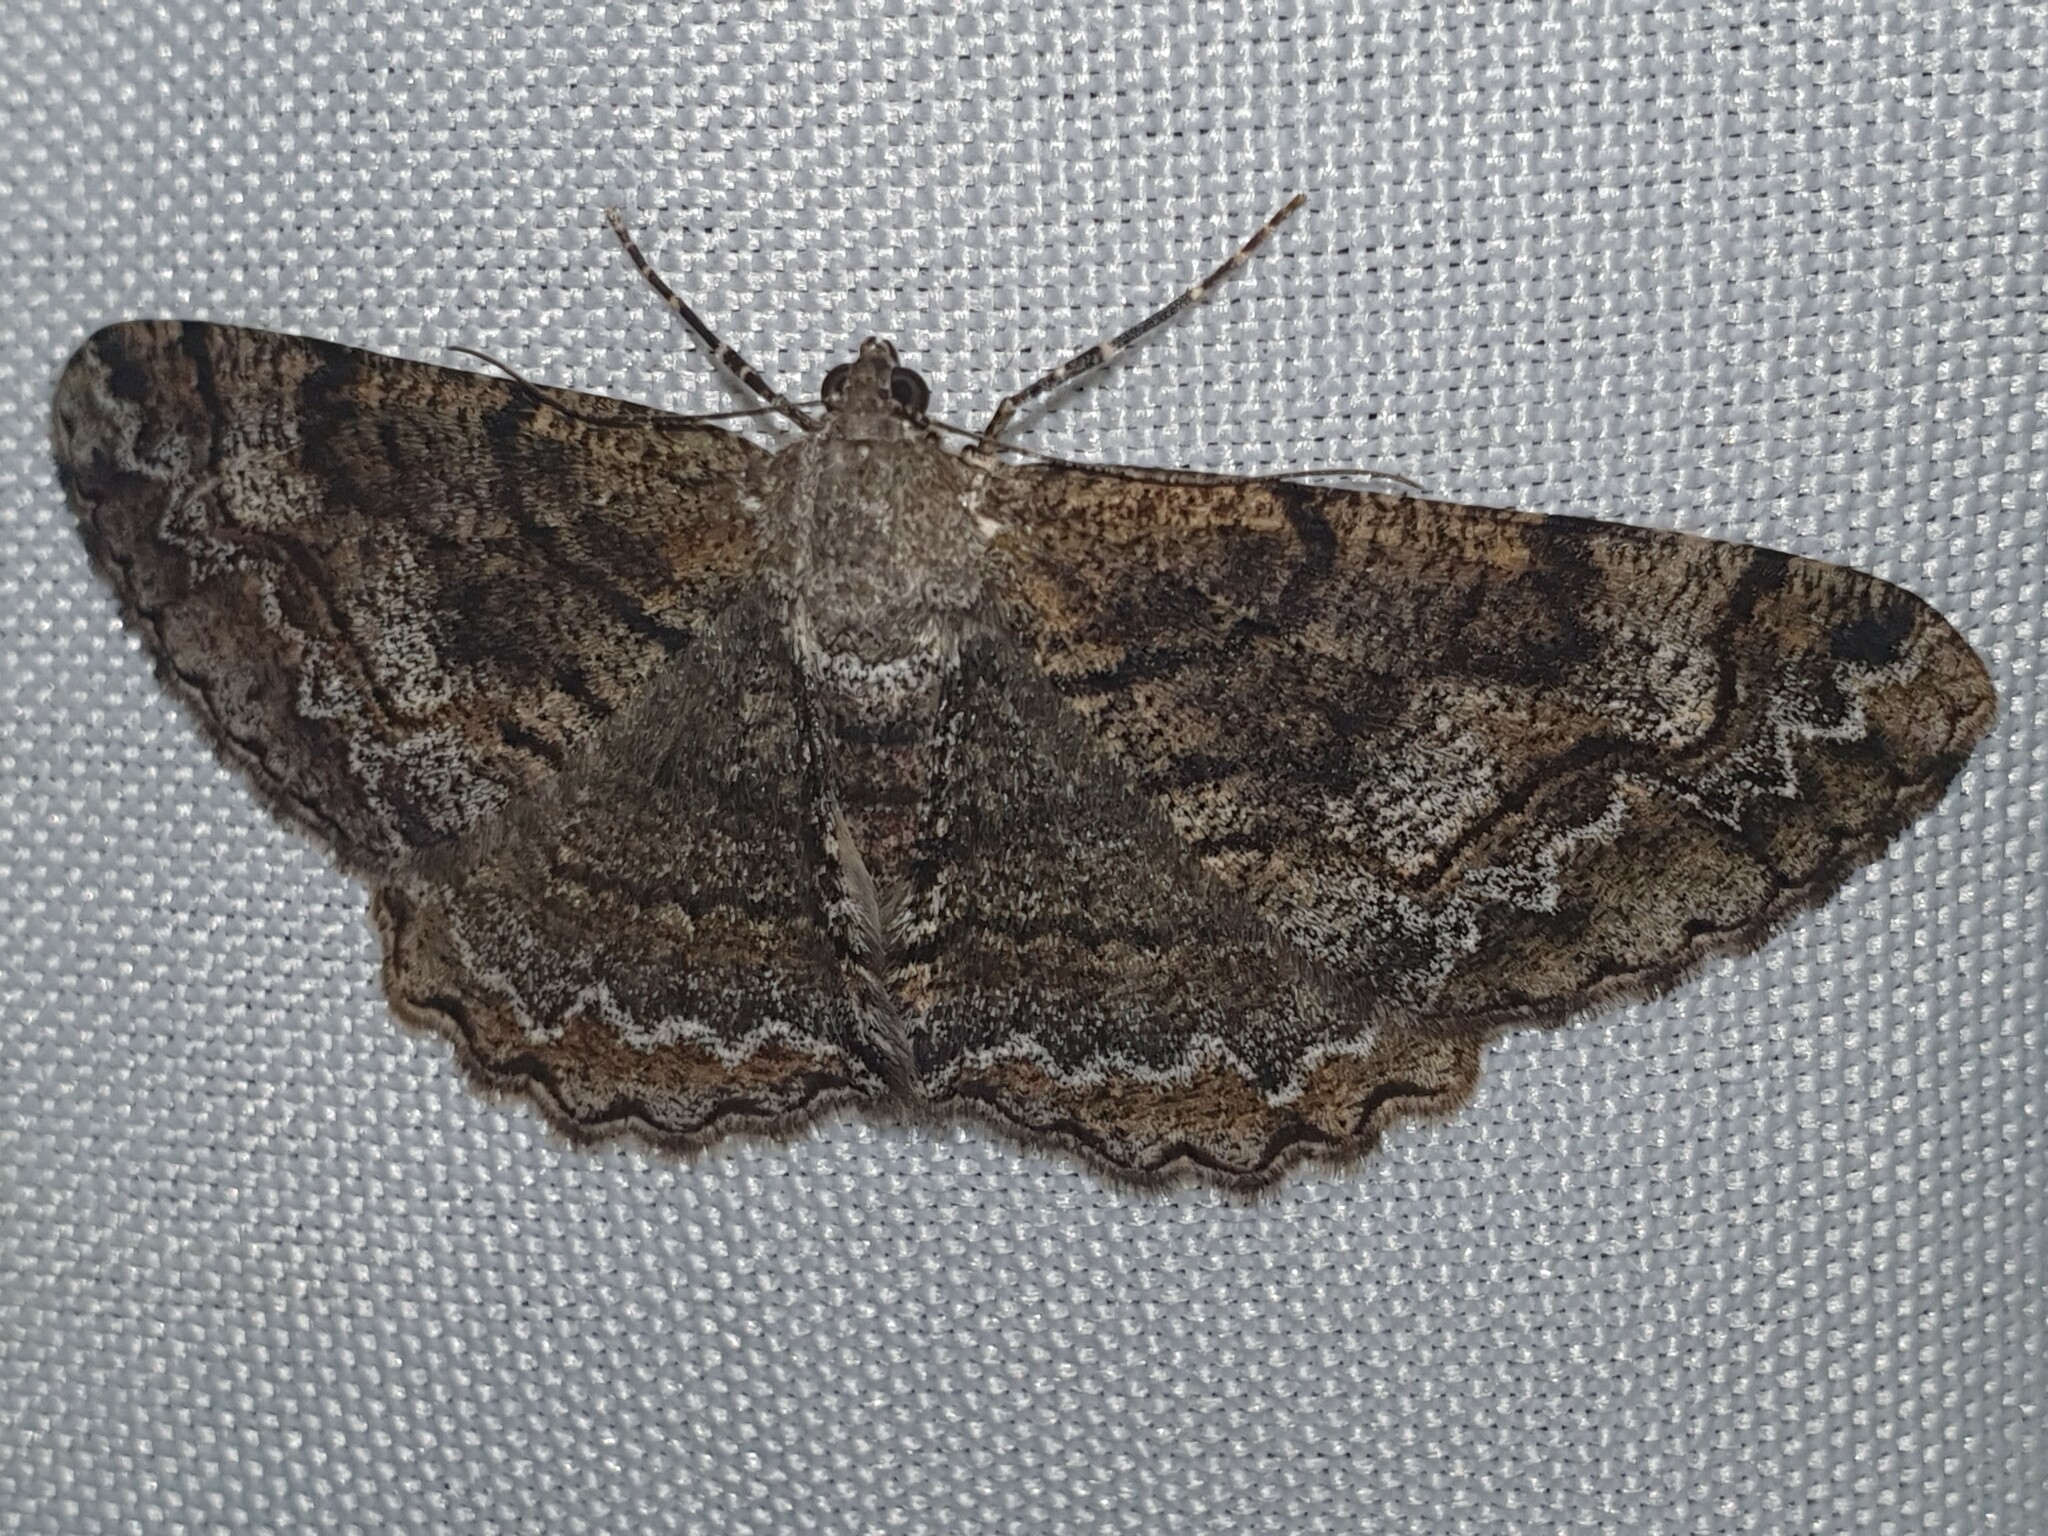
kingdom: Animalia
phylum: Arthropoda
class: Insecta
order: Lepidoptera
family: Geometridae
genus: Alcis
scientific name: Alcis repandata
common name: Mottled beauty
